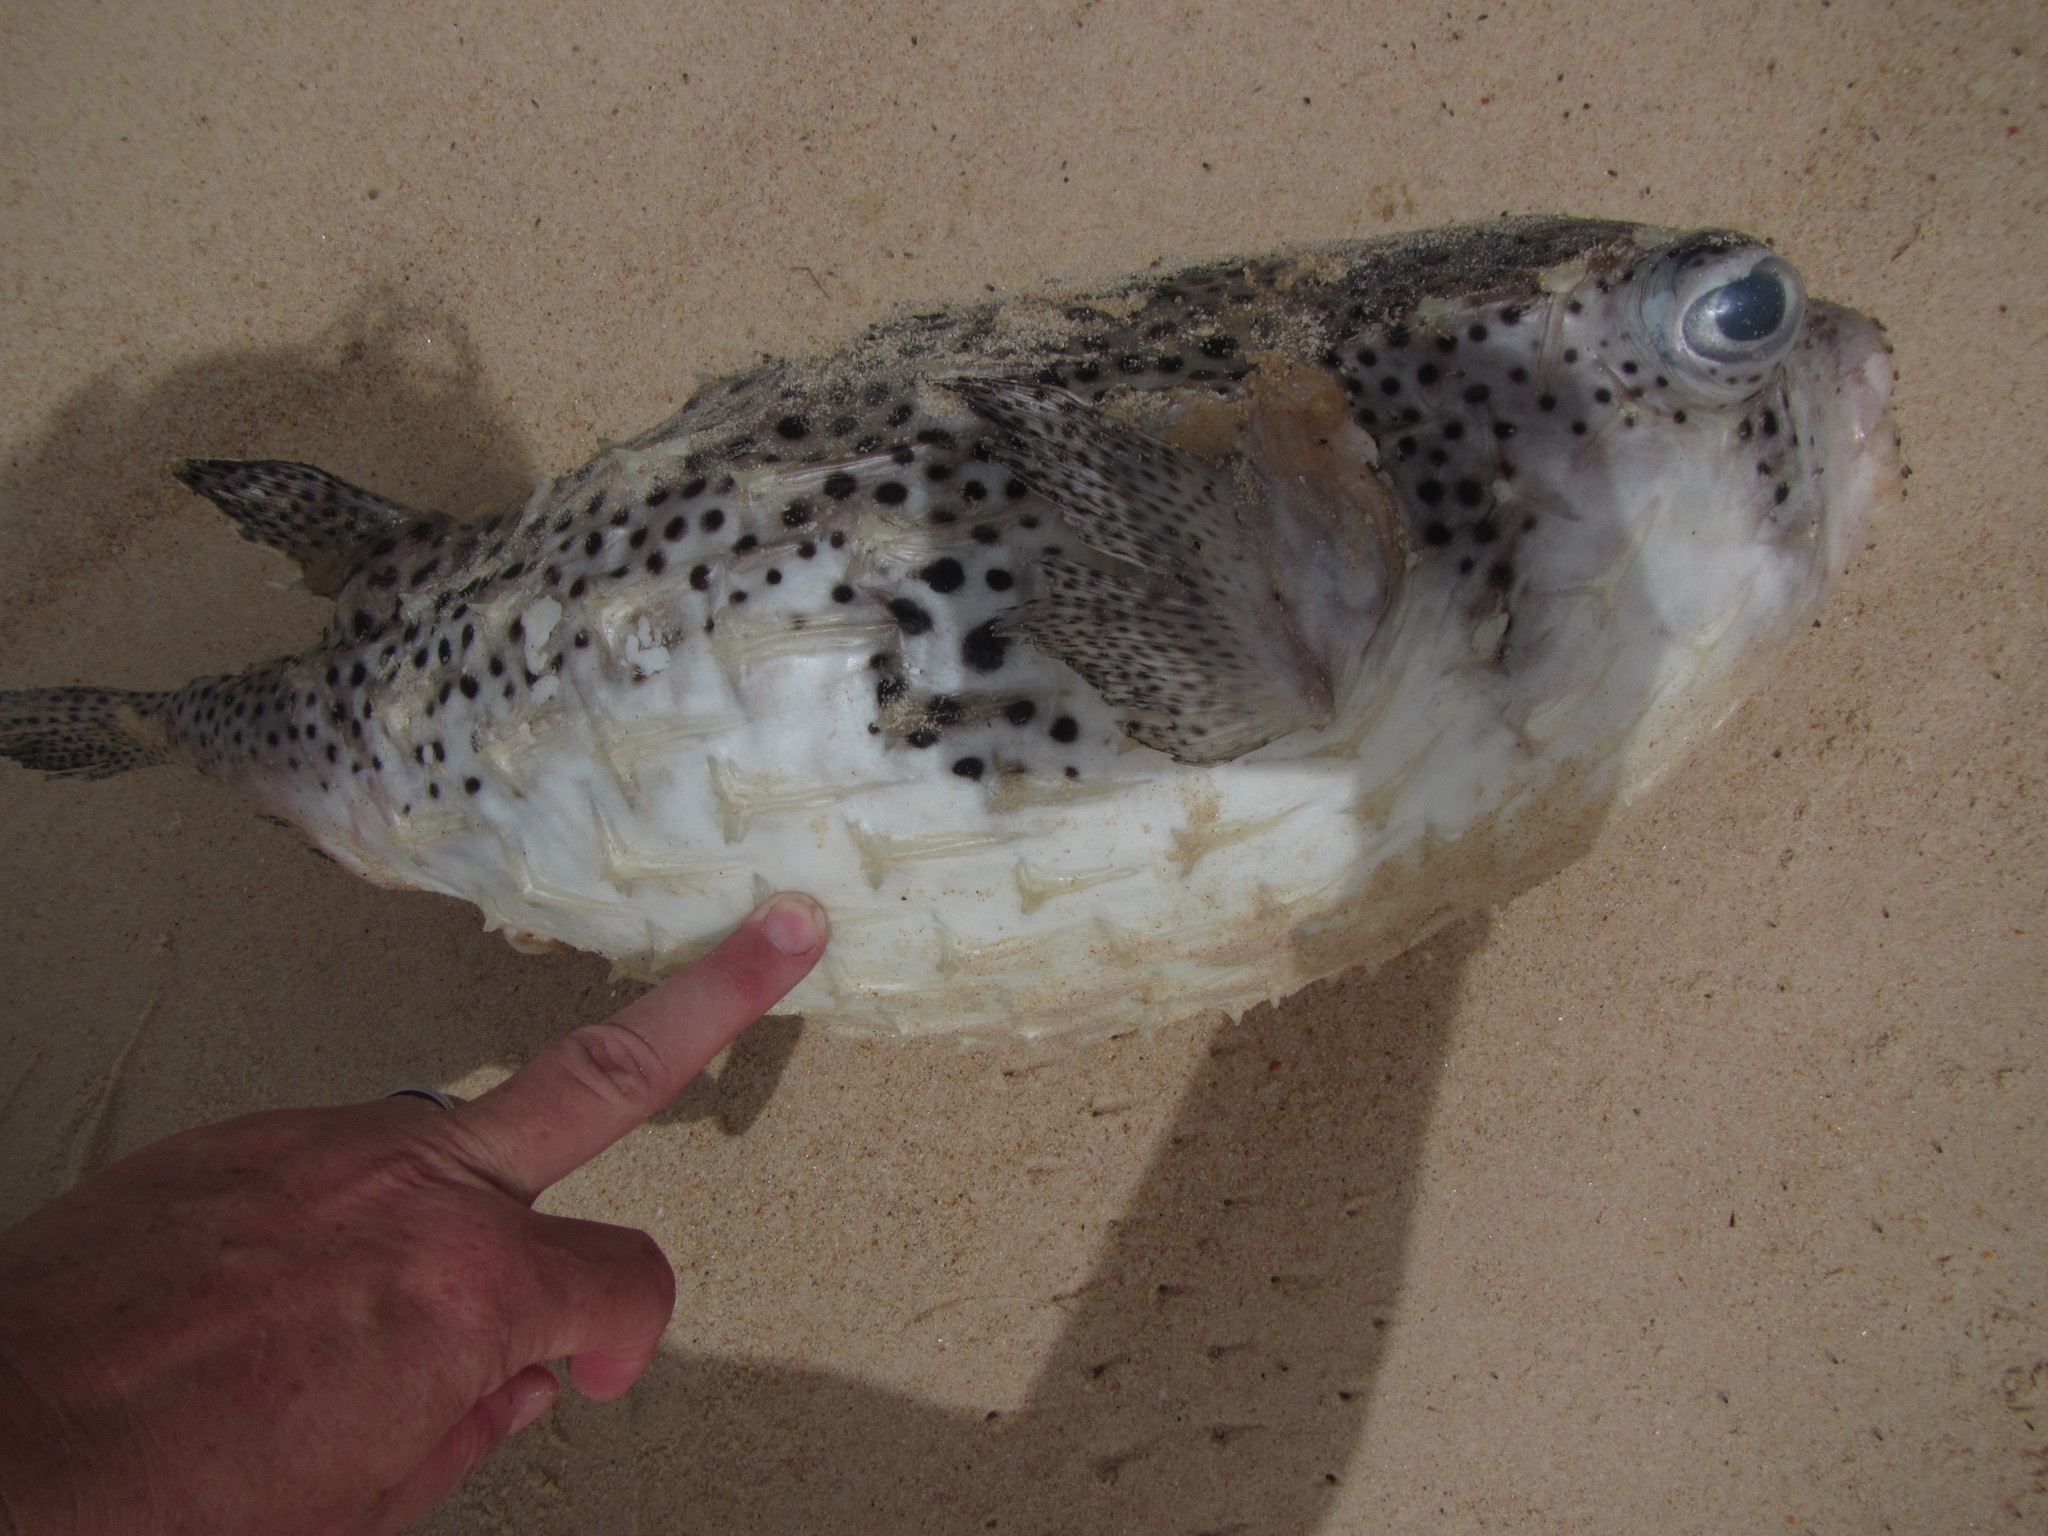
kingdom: Animalia
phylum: Chordata
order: Tetraodontiformes
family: Diodontidae
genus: Chilomycterus
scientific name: Chilomycterus reticulatus
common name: Spotfin burrfish
